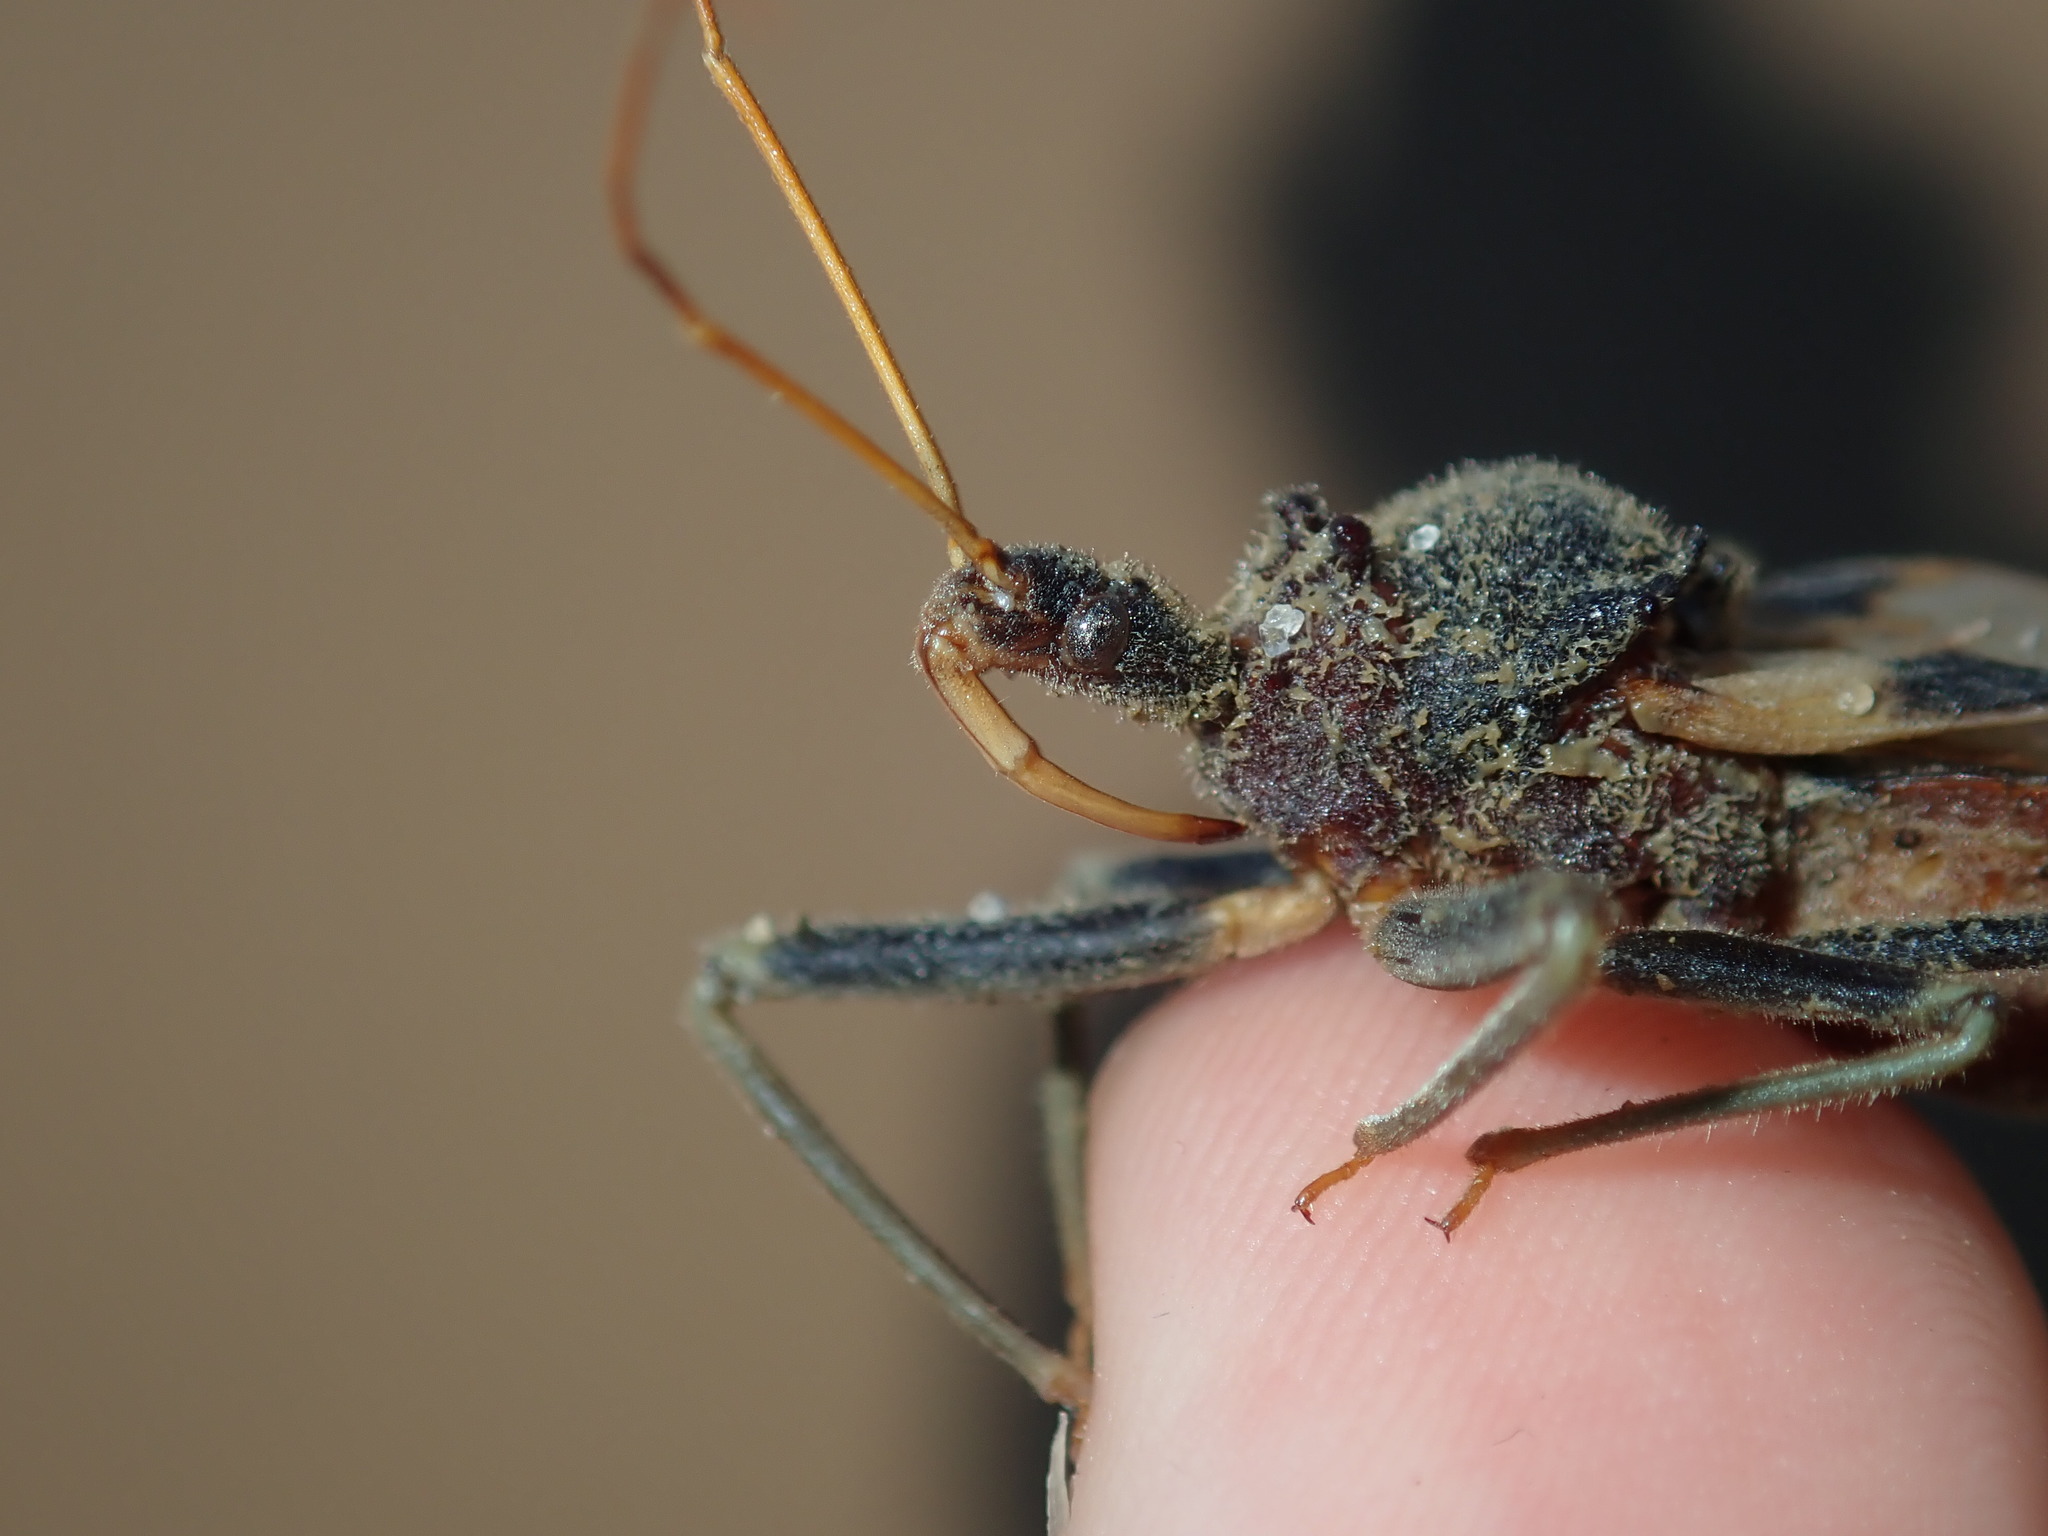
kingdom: Animalia
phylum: Arthropoda
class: Insecta
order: Hemiptera
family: Reduviidae
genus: Pristhesancus
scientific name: Pristhesancus plagipennis
